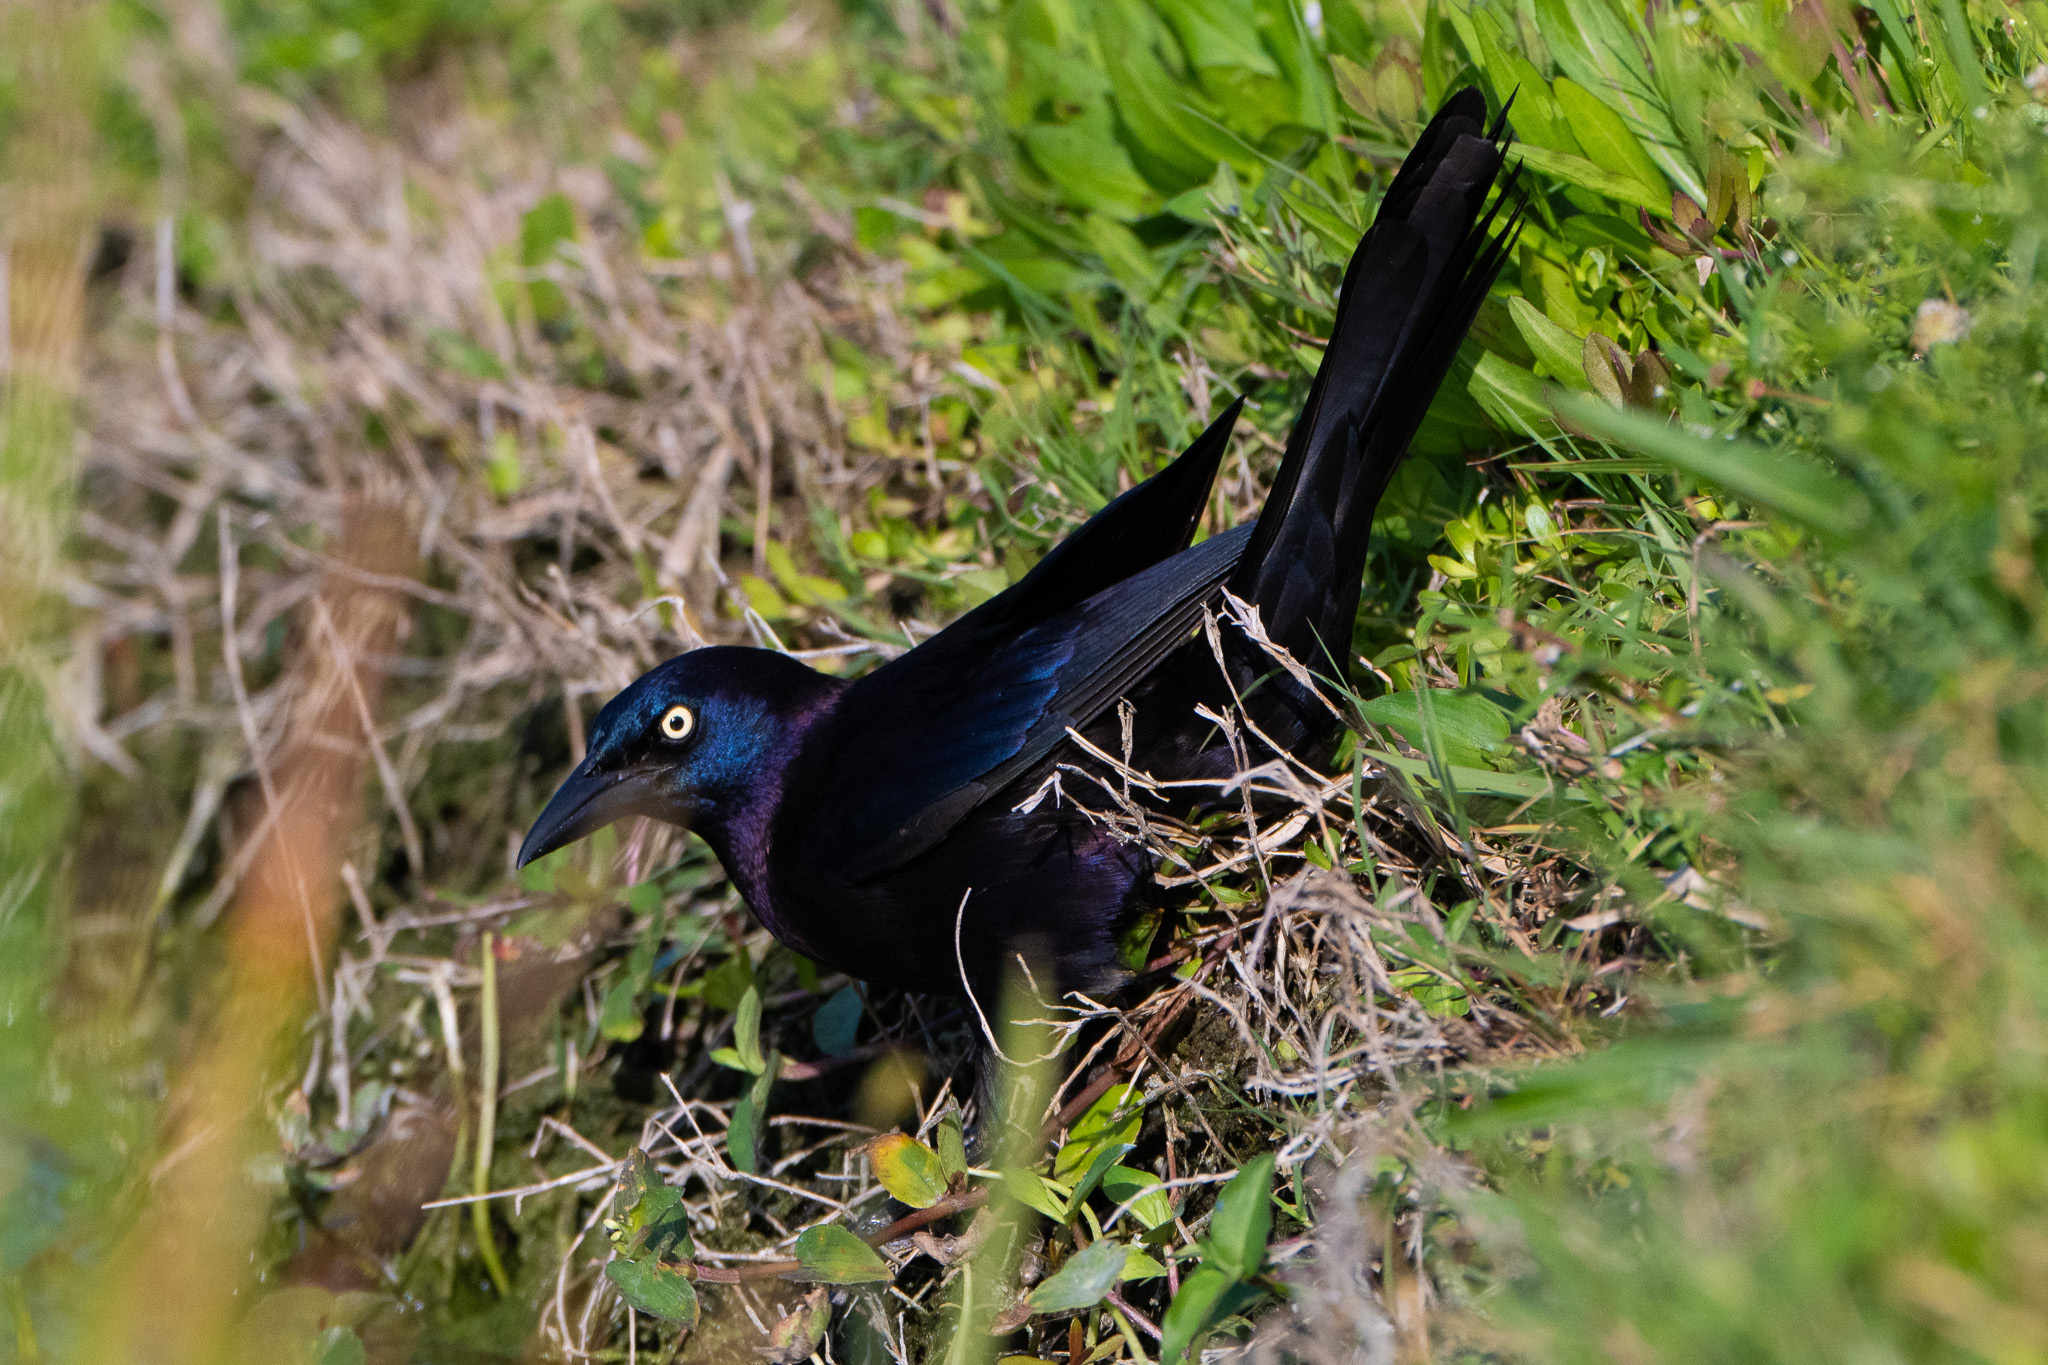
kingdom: Animalia
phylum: Chordata
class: Aves
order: Passeriformes
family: Icteridae
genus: Quiscalus
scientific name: Quiscalus quiscula
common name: Common grackle
